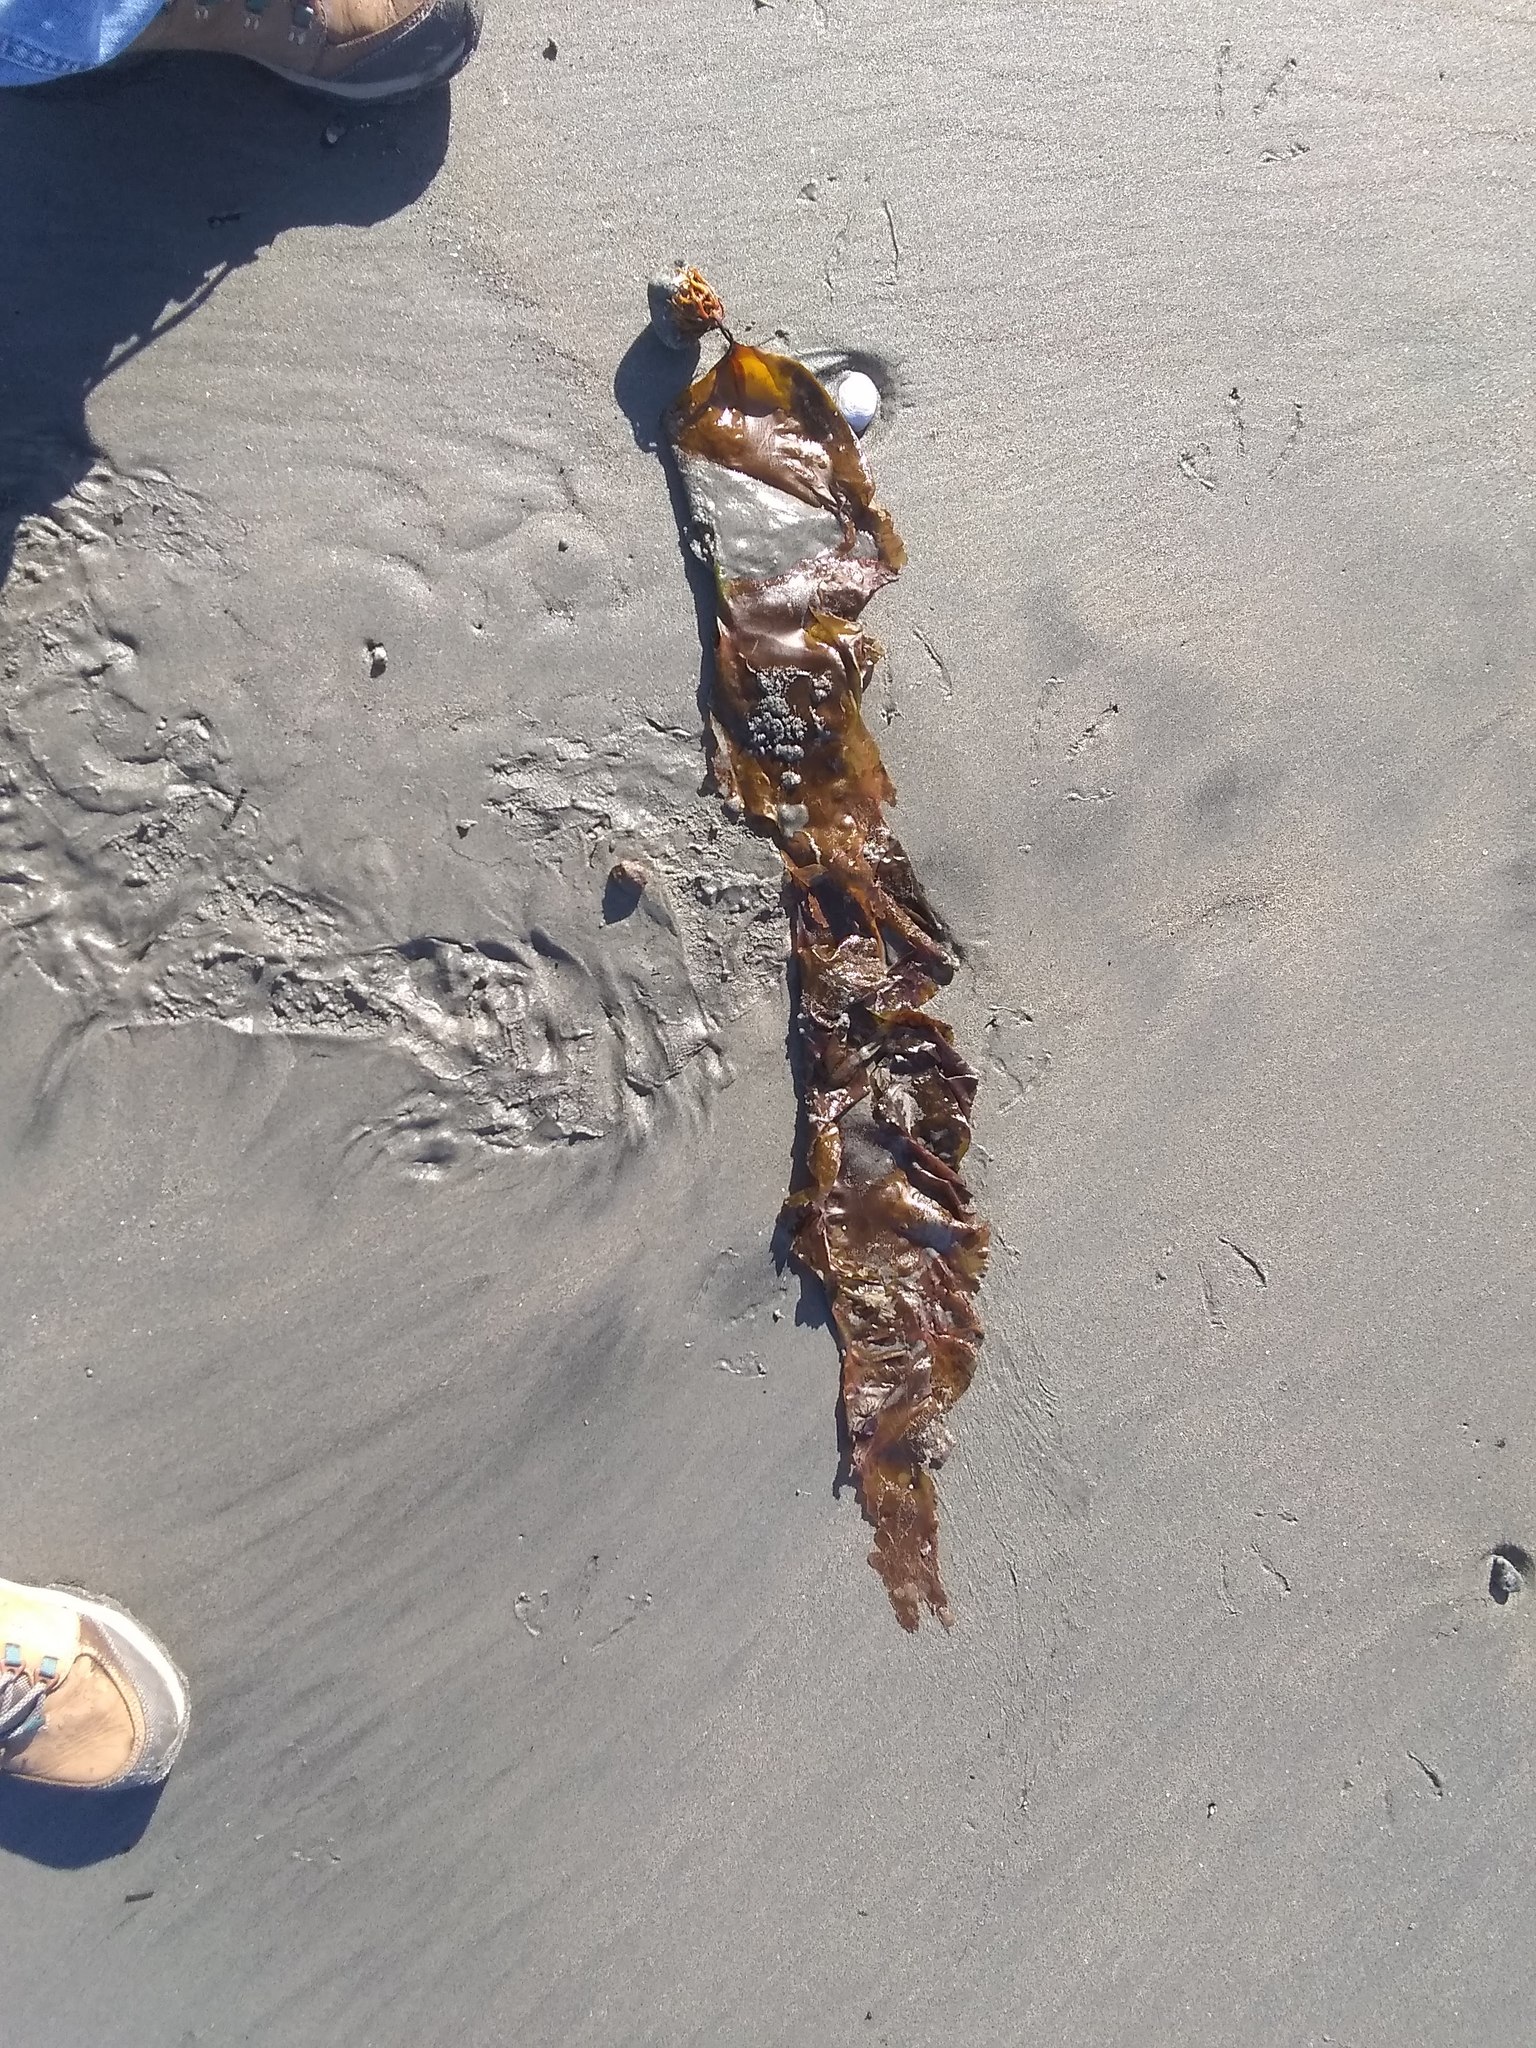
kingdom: Chromista
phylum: Ochrophyta
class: Phaeophyceae
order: Laminariales
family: Laminariaceae
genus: Saccharina
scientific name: Saccharina latissima
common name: Poor man's weather glass
